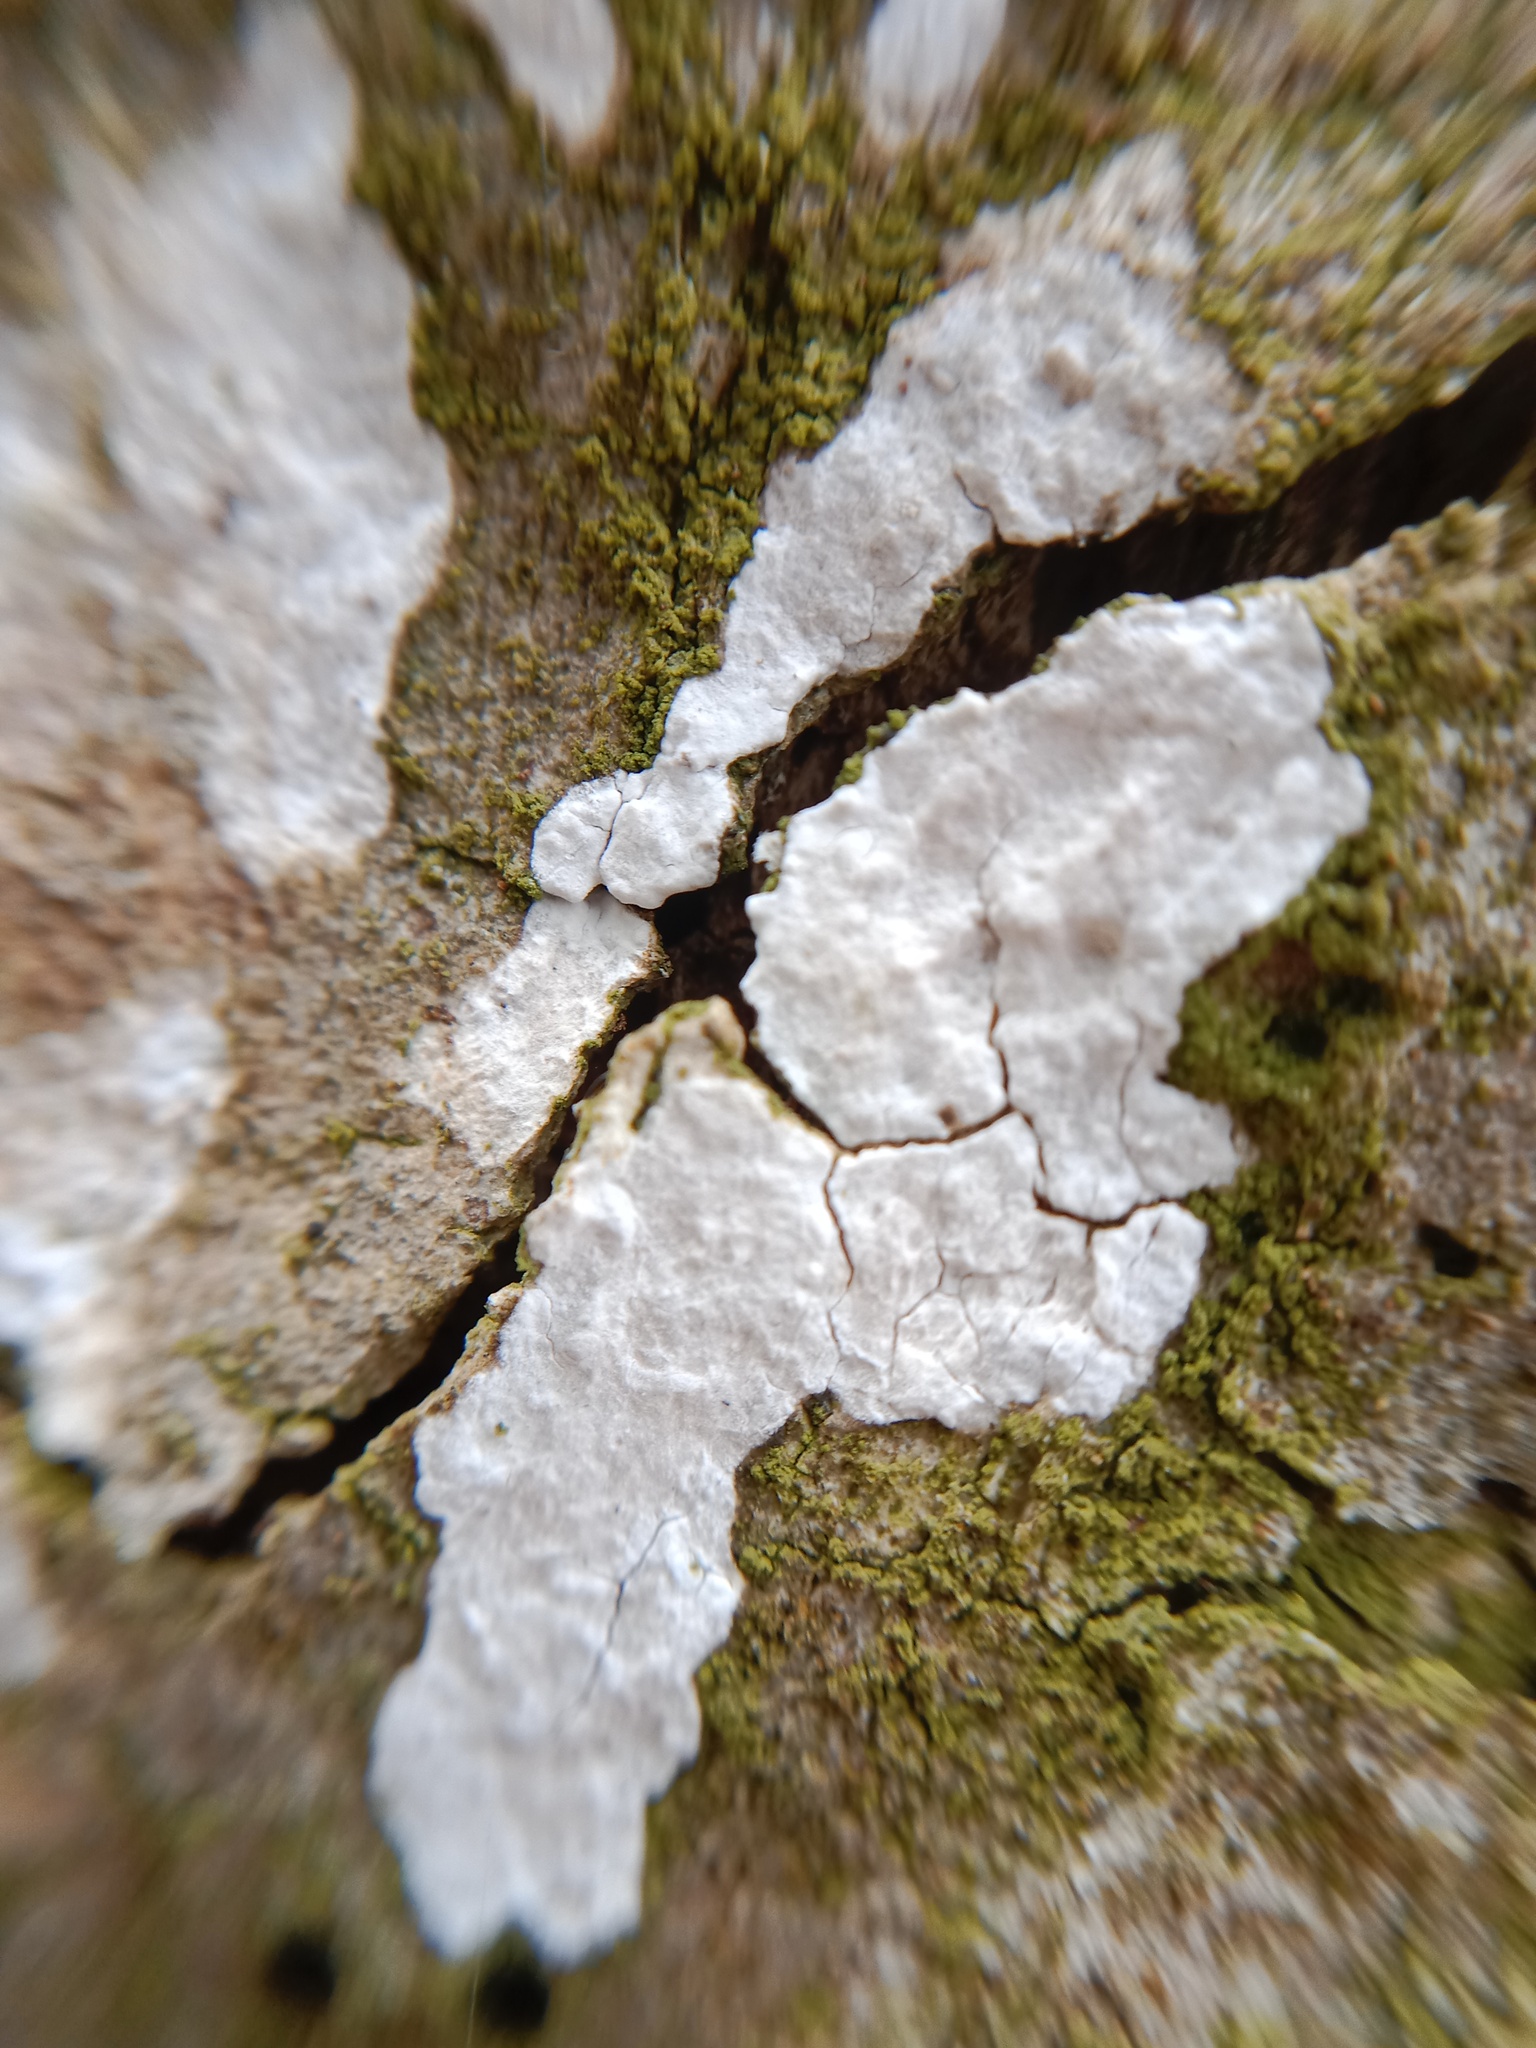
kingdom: Fungi
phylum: Basidiomycota
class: Agaricomycetes
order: Agaricales
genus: Dendrothele
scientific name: Dendrothele acerina
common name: Maple whitewash
